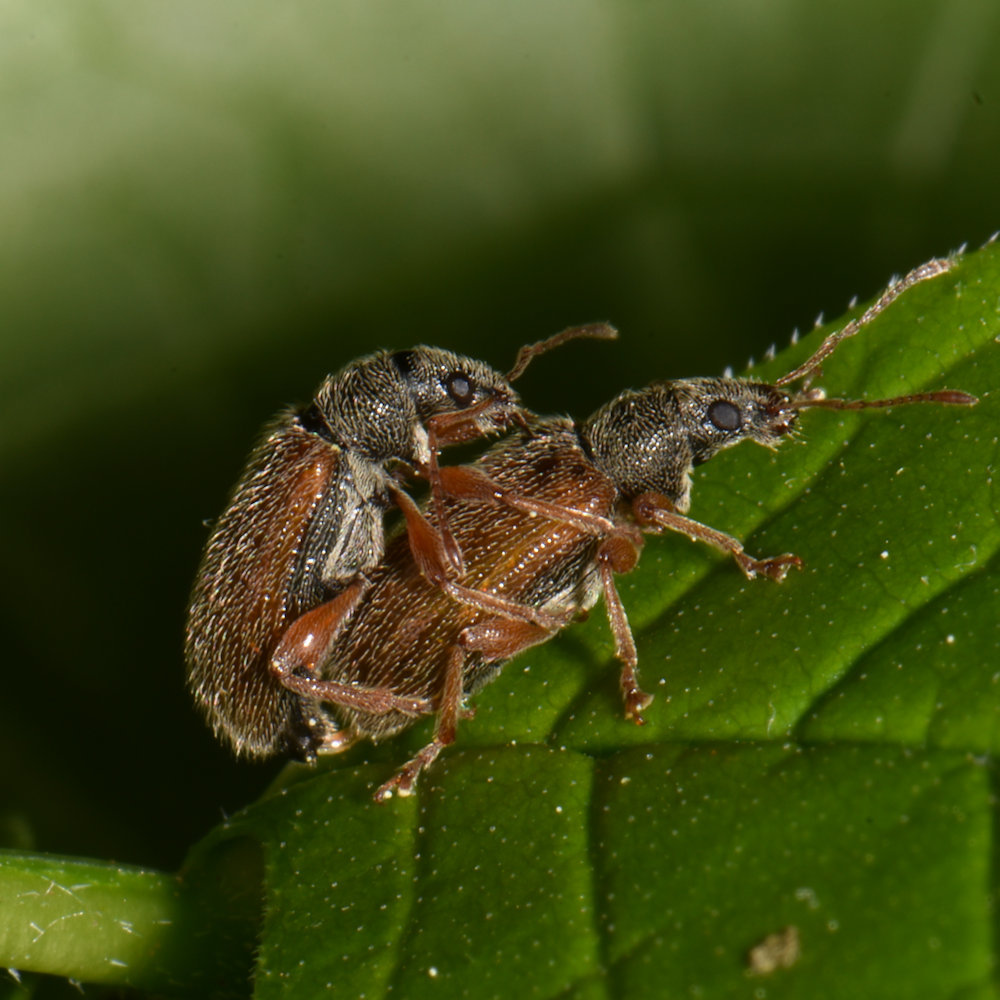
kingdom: Animalia
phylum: Arthropoda
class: Insecta
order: Coleoptera
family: Curculionidae
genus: Phyllobius
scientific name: Phyllobius oblongus
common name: Brown leaf weevil
